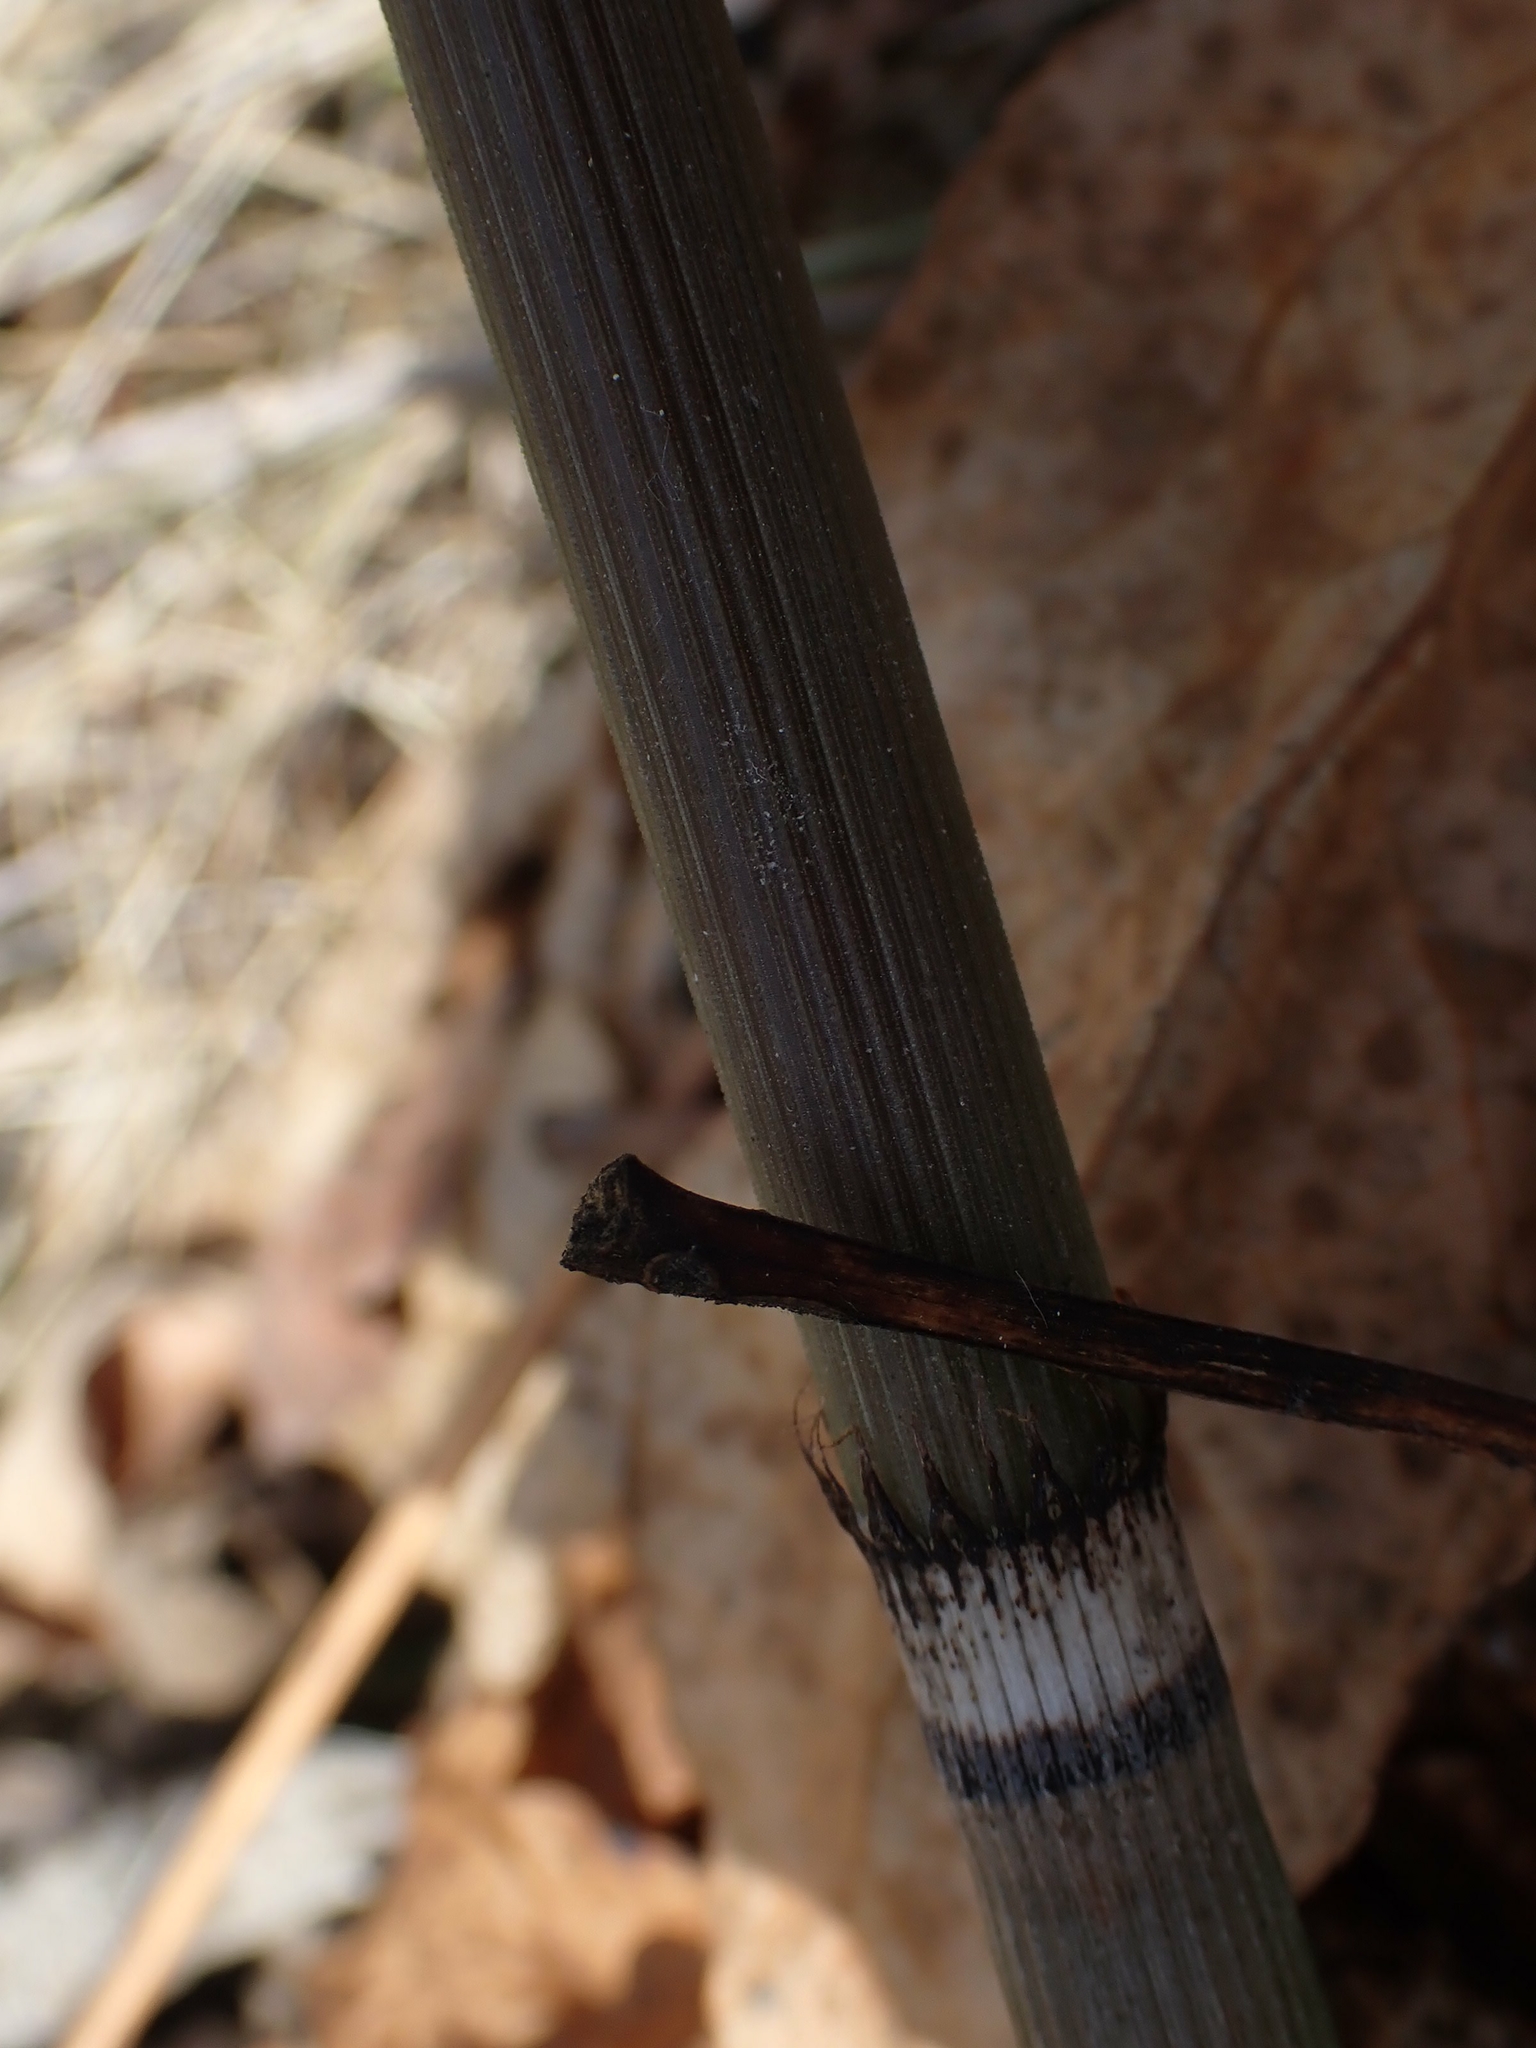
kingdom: Plantae
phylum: Tracheophyta
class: Polypodiopsida
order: Equisetales
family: Equisetaceae
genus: Equisetum
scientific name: Equisetum praealtum
